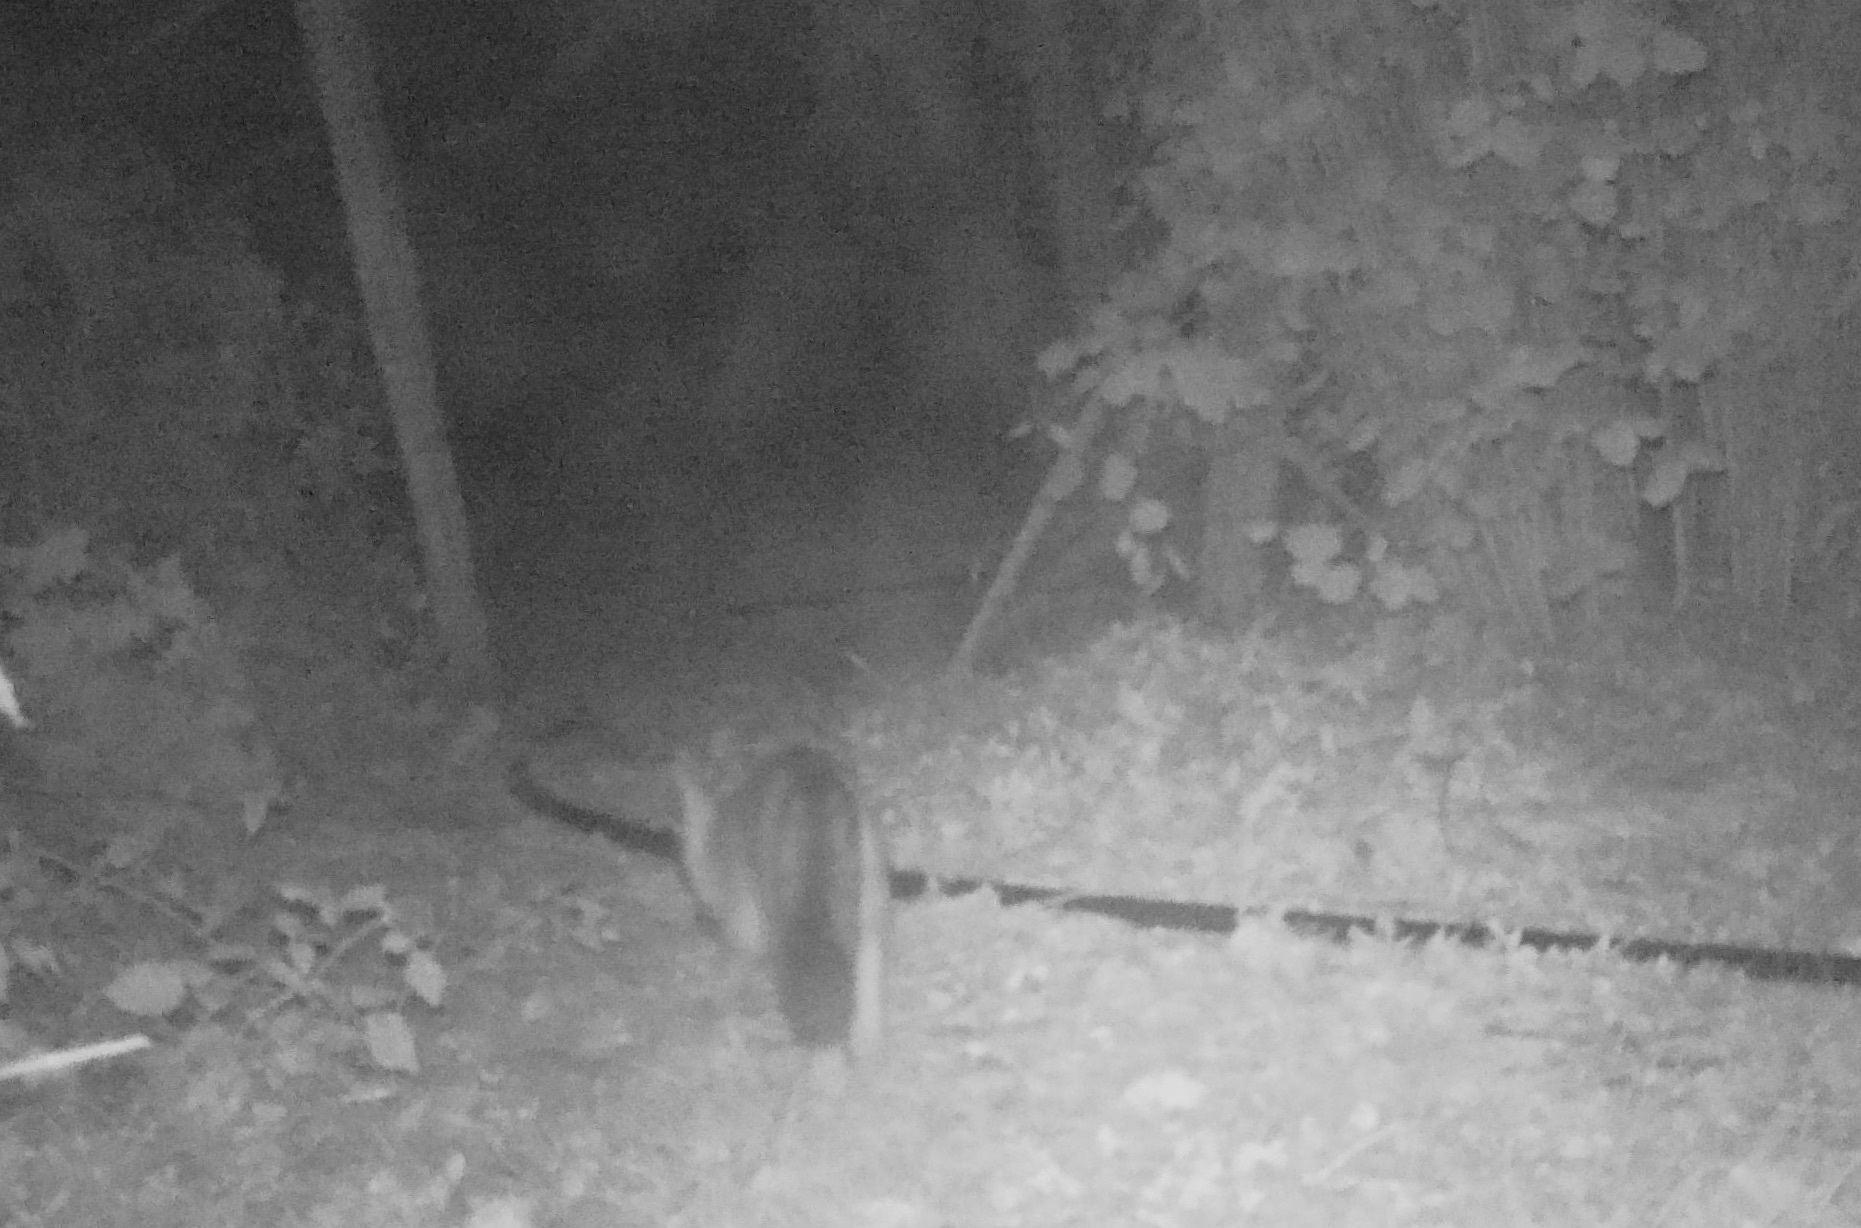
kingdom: Animalia
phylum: Chordata
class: Mammalia
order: Carnivora
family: Canidae
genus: Urocyon
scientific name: Urocyon cinereoargenteus
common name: Gray fox
